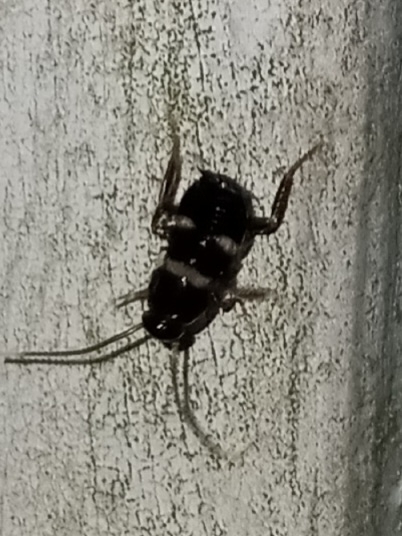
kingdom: Animalia
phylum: Arthropoda
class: Insecta
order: Blattodea
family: Blattidae
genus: Periplaneta
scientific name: Periplaneta fuliginosa
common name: Smokeybrown cockroad
